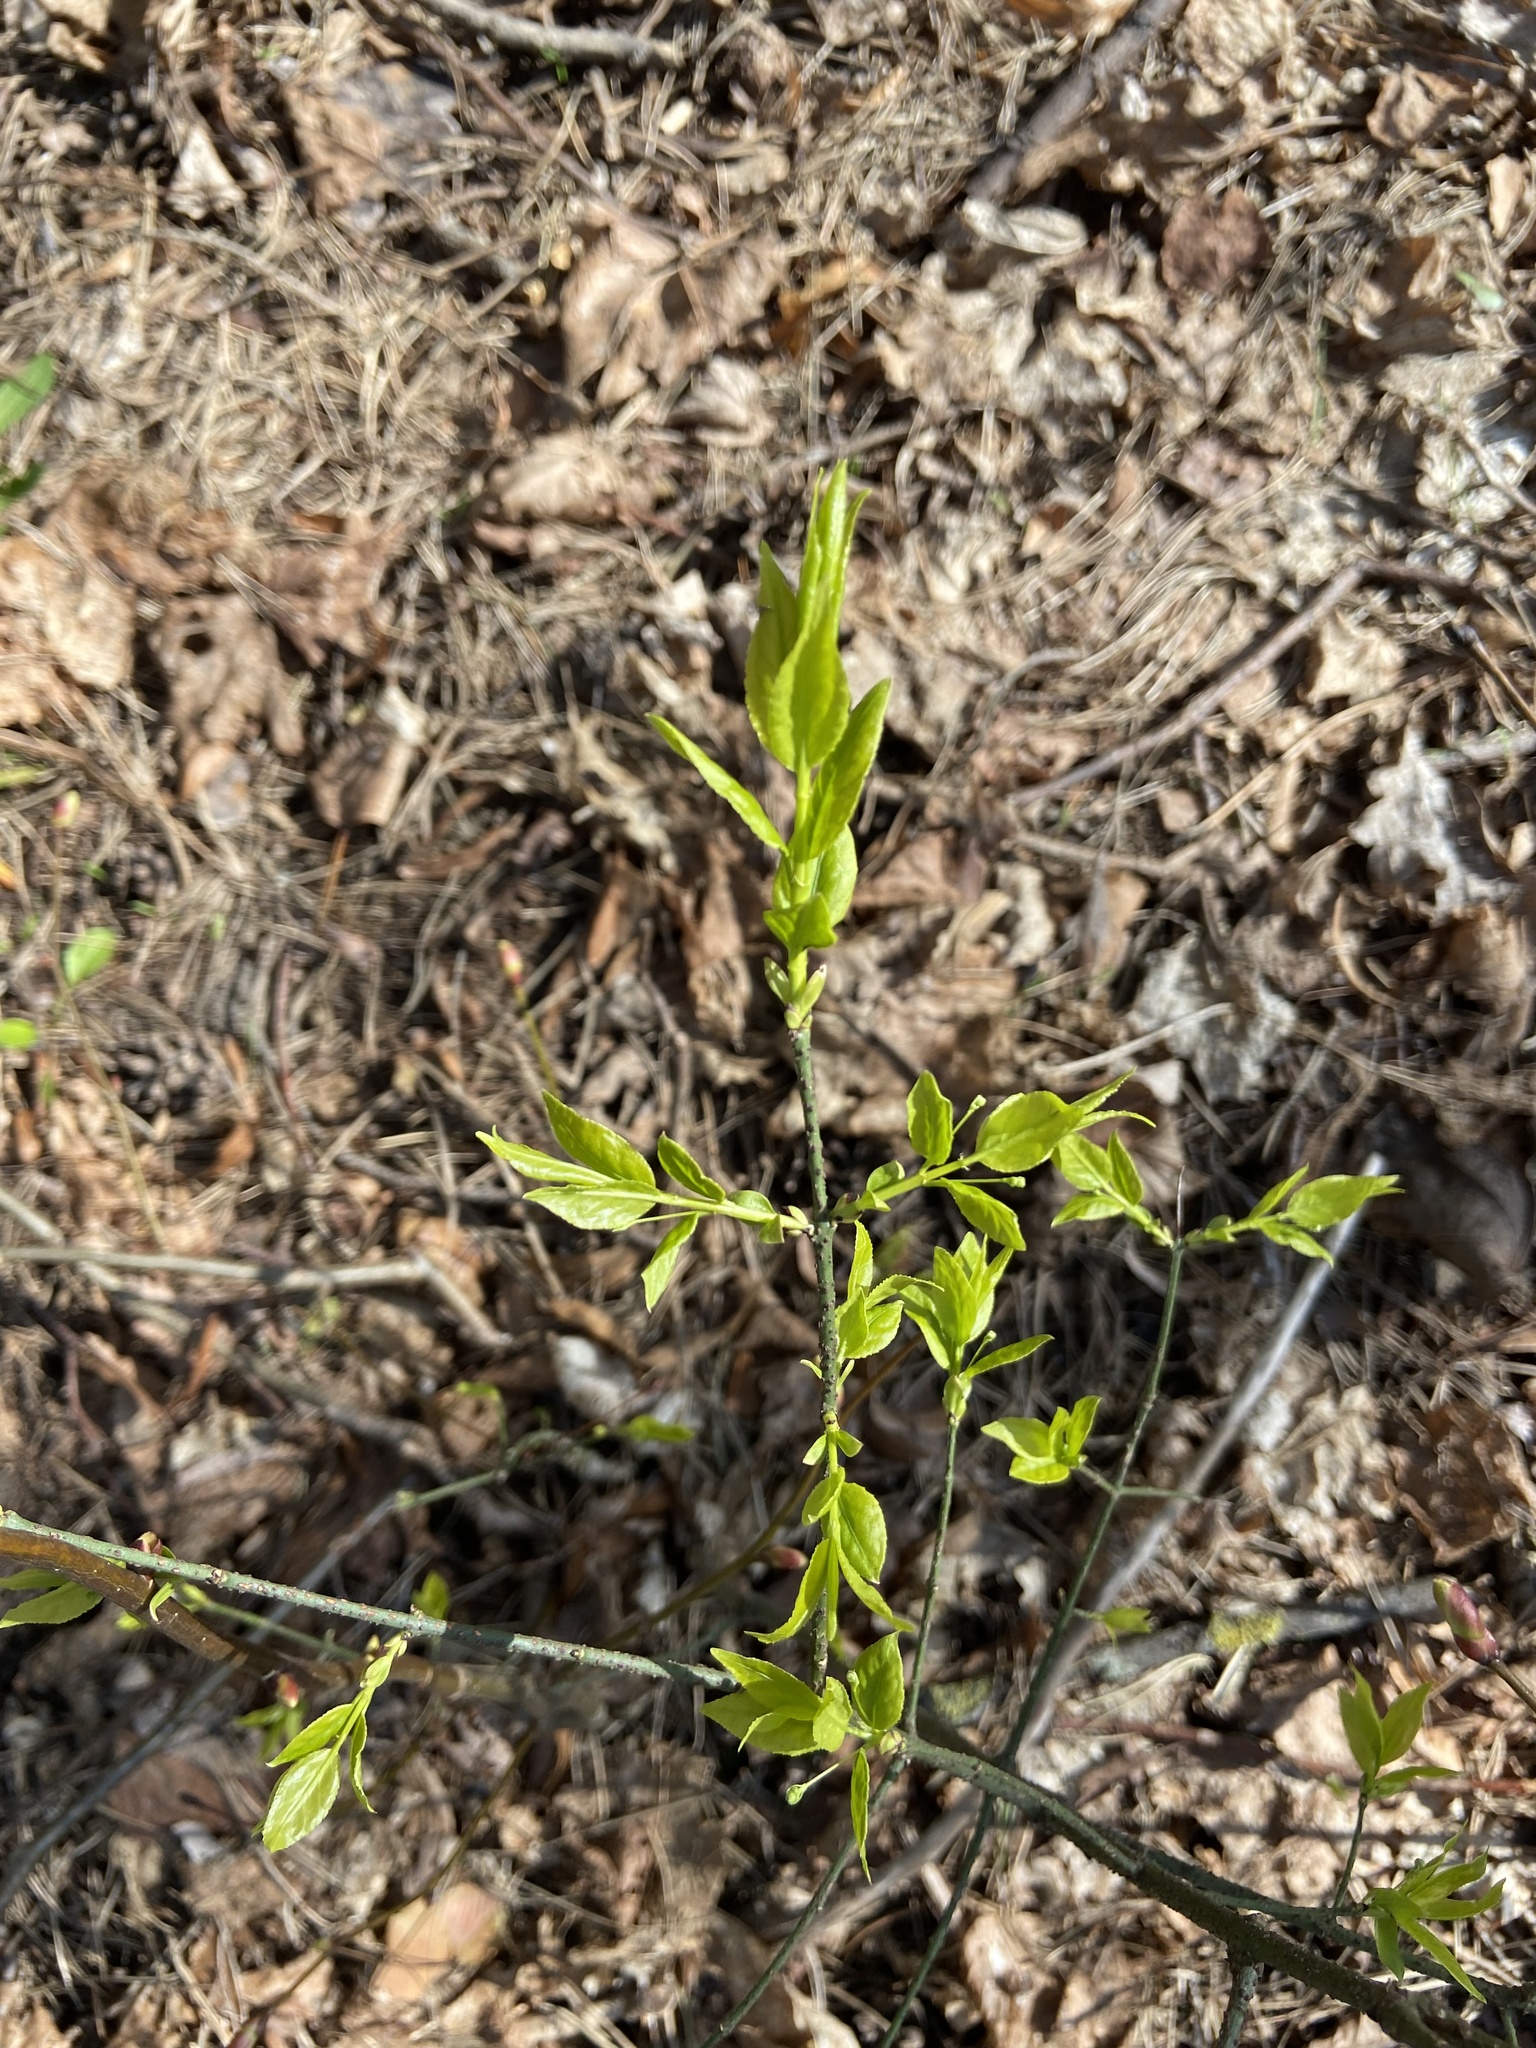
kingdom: Plantae
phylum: Tracheophyta
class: Magnoliopsida
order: Celastrales
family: Celastraceae
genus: Euonymus
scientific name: Euonymus verrucosus
